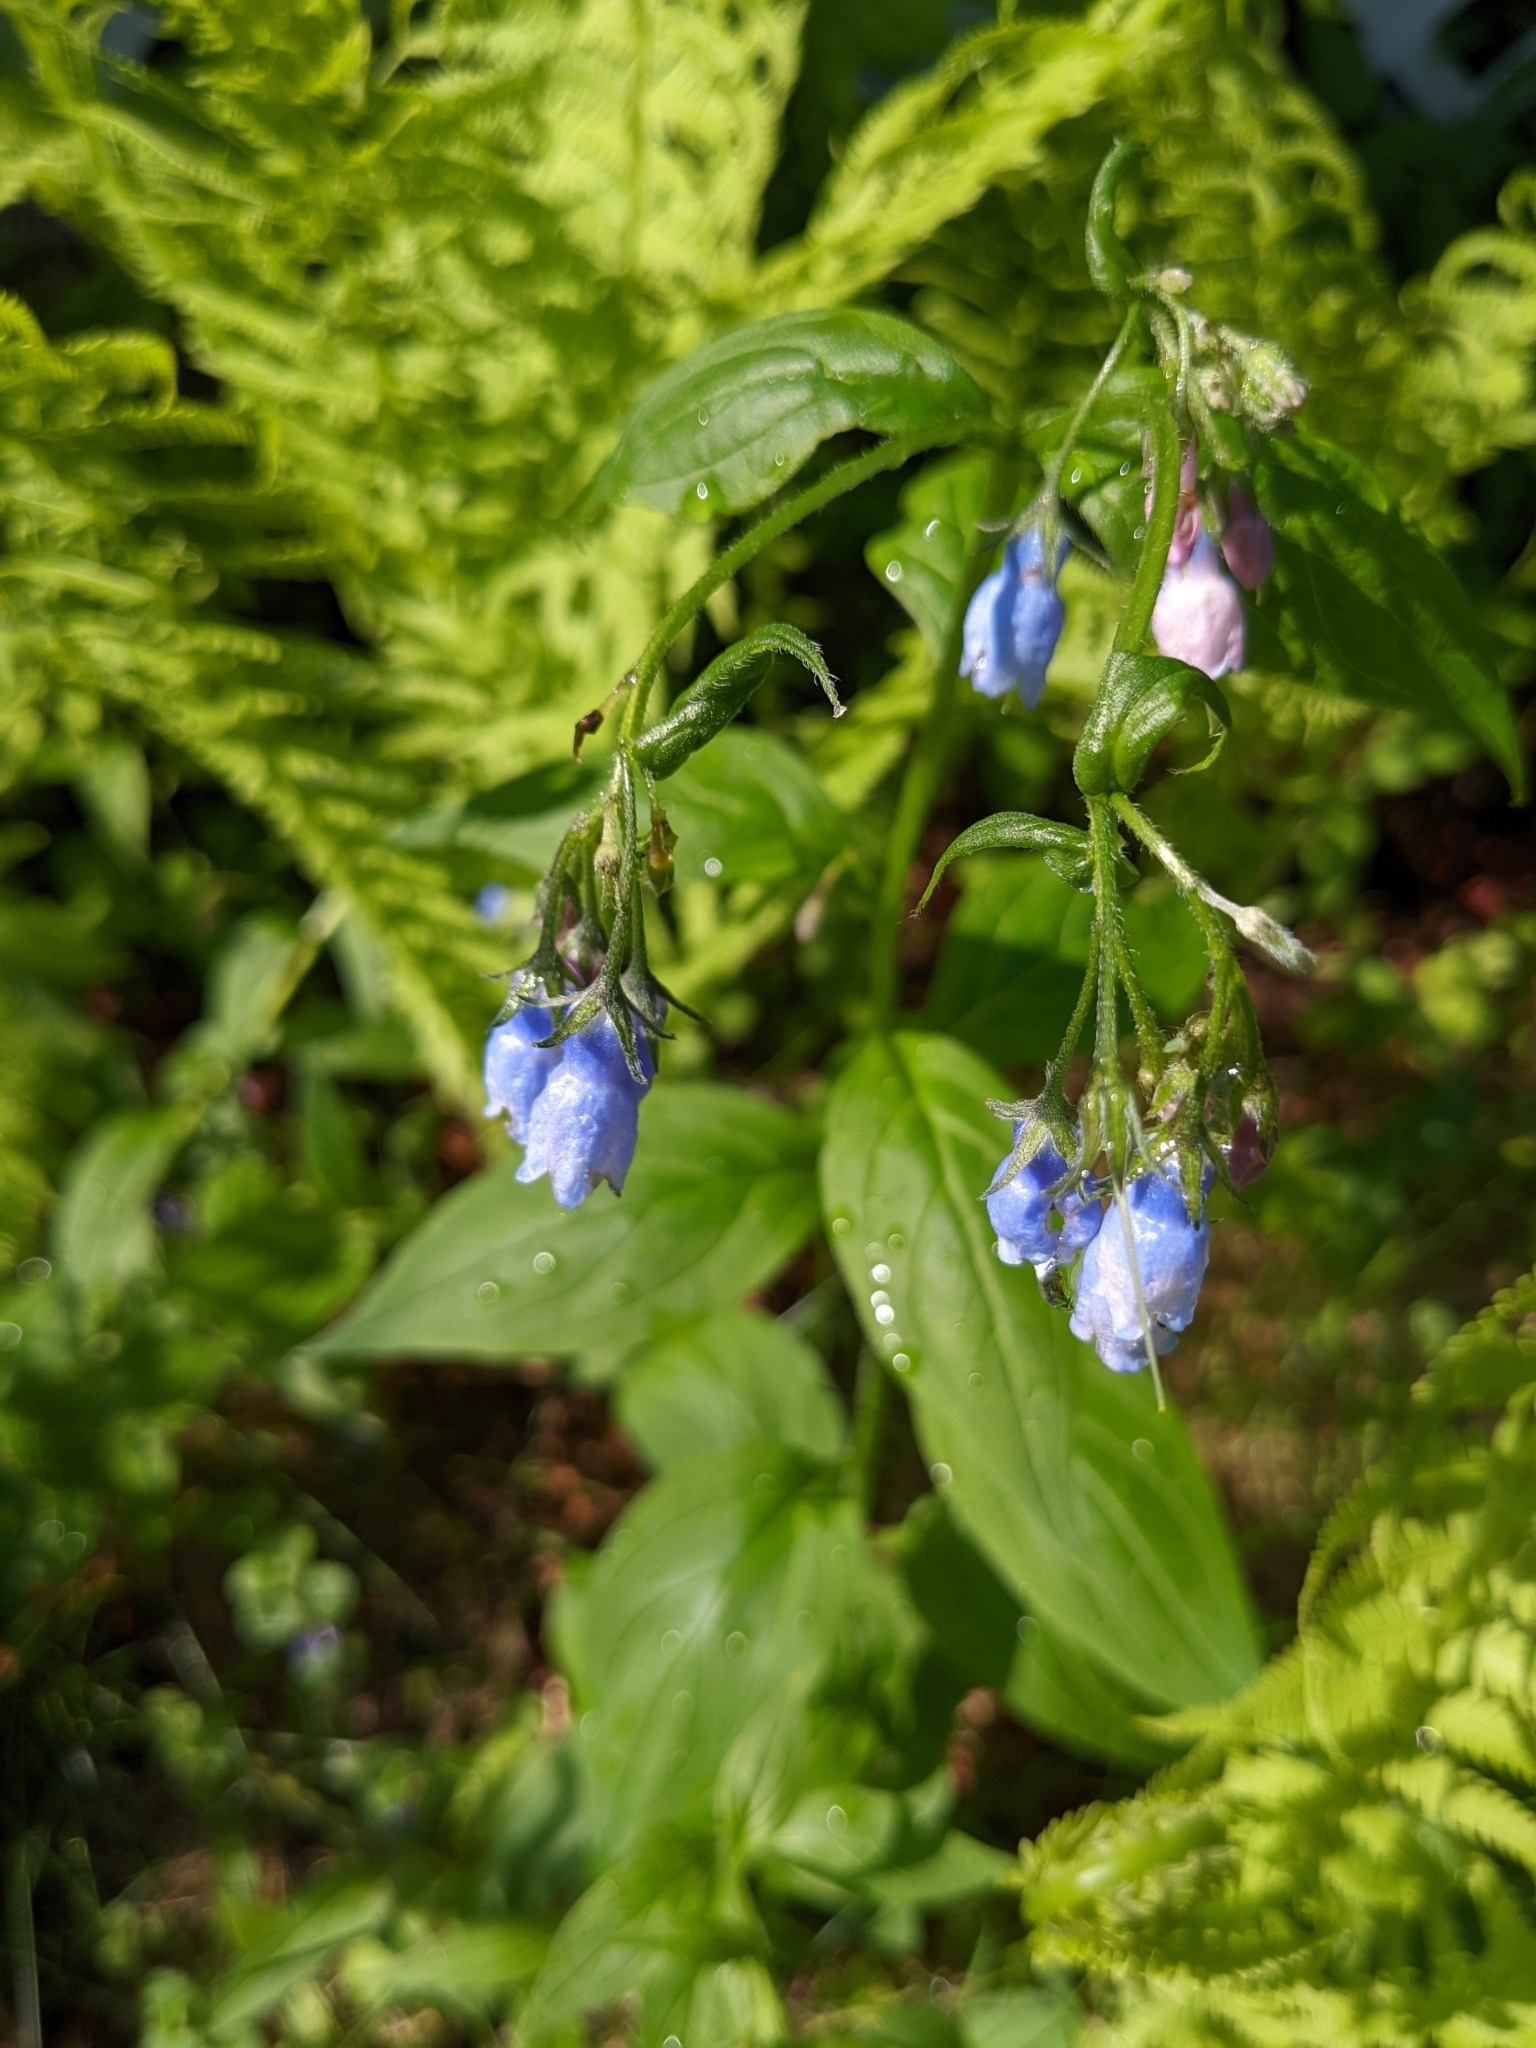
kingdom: Plantae
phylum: Tracheophyta
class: Magnoliopsida
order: Boraginales
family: Boraginaceae
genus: Mertensia
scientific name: Mertensia paniculata
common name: Panicled bluebells
